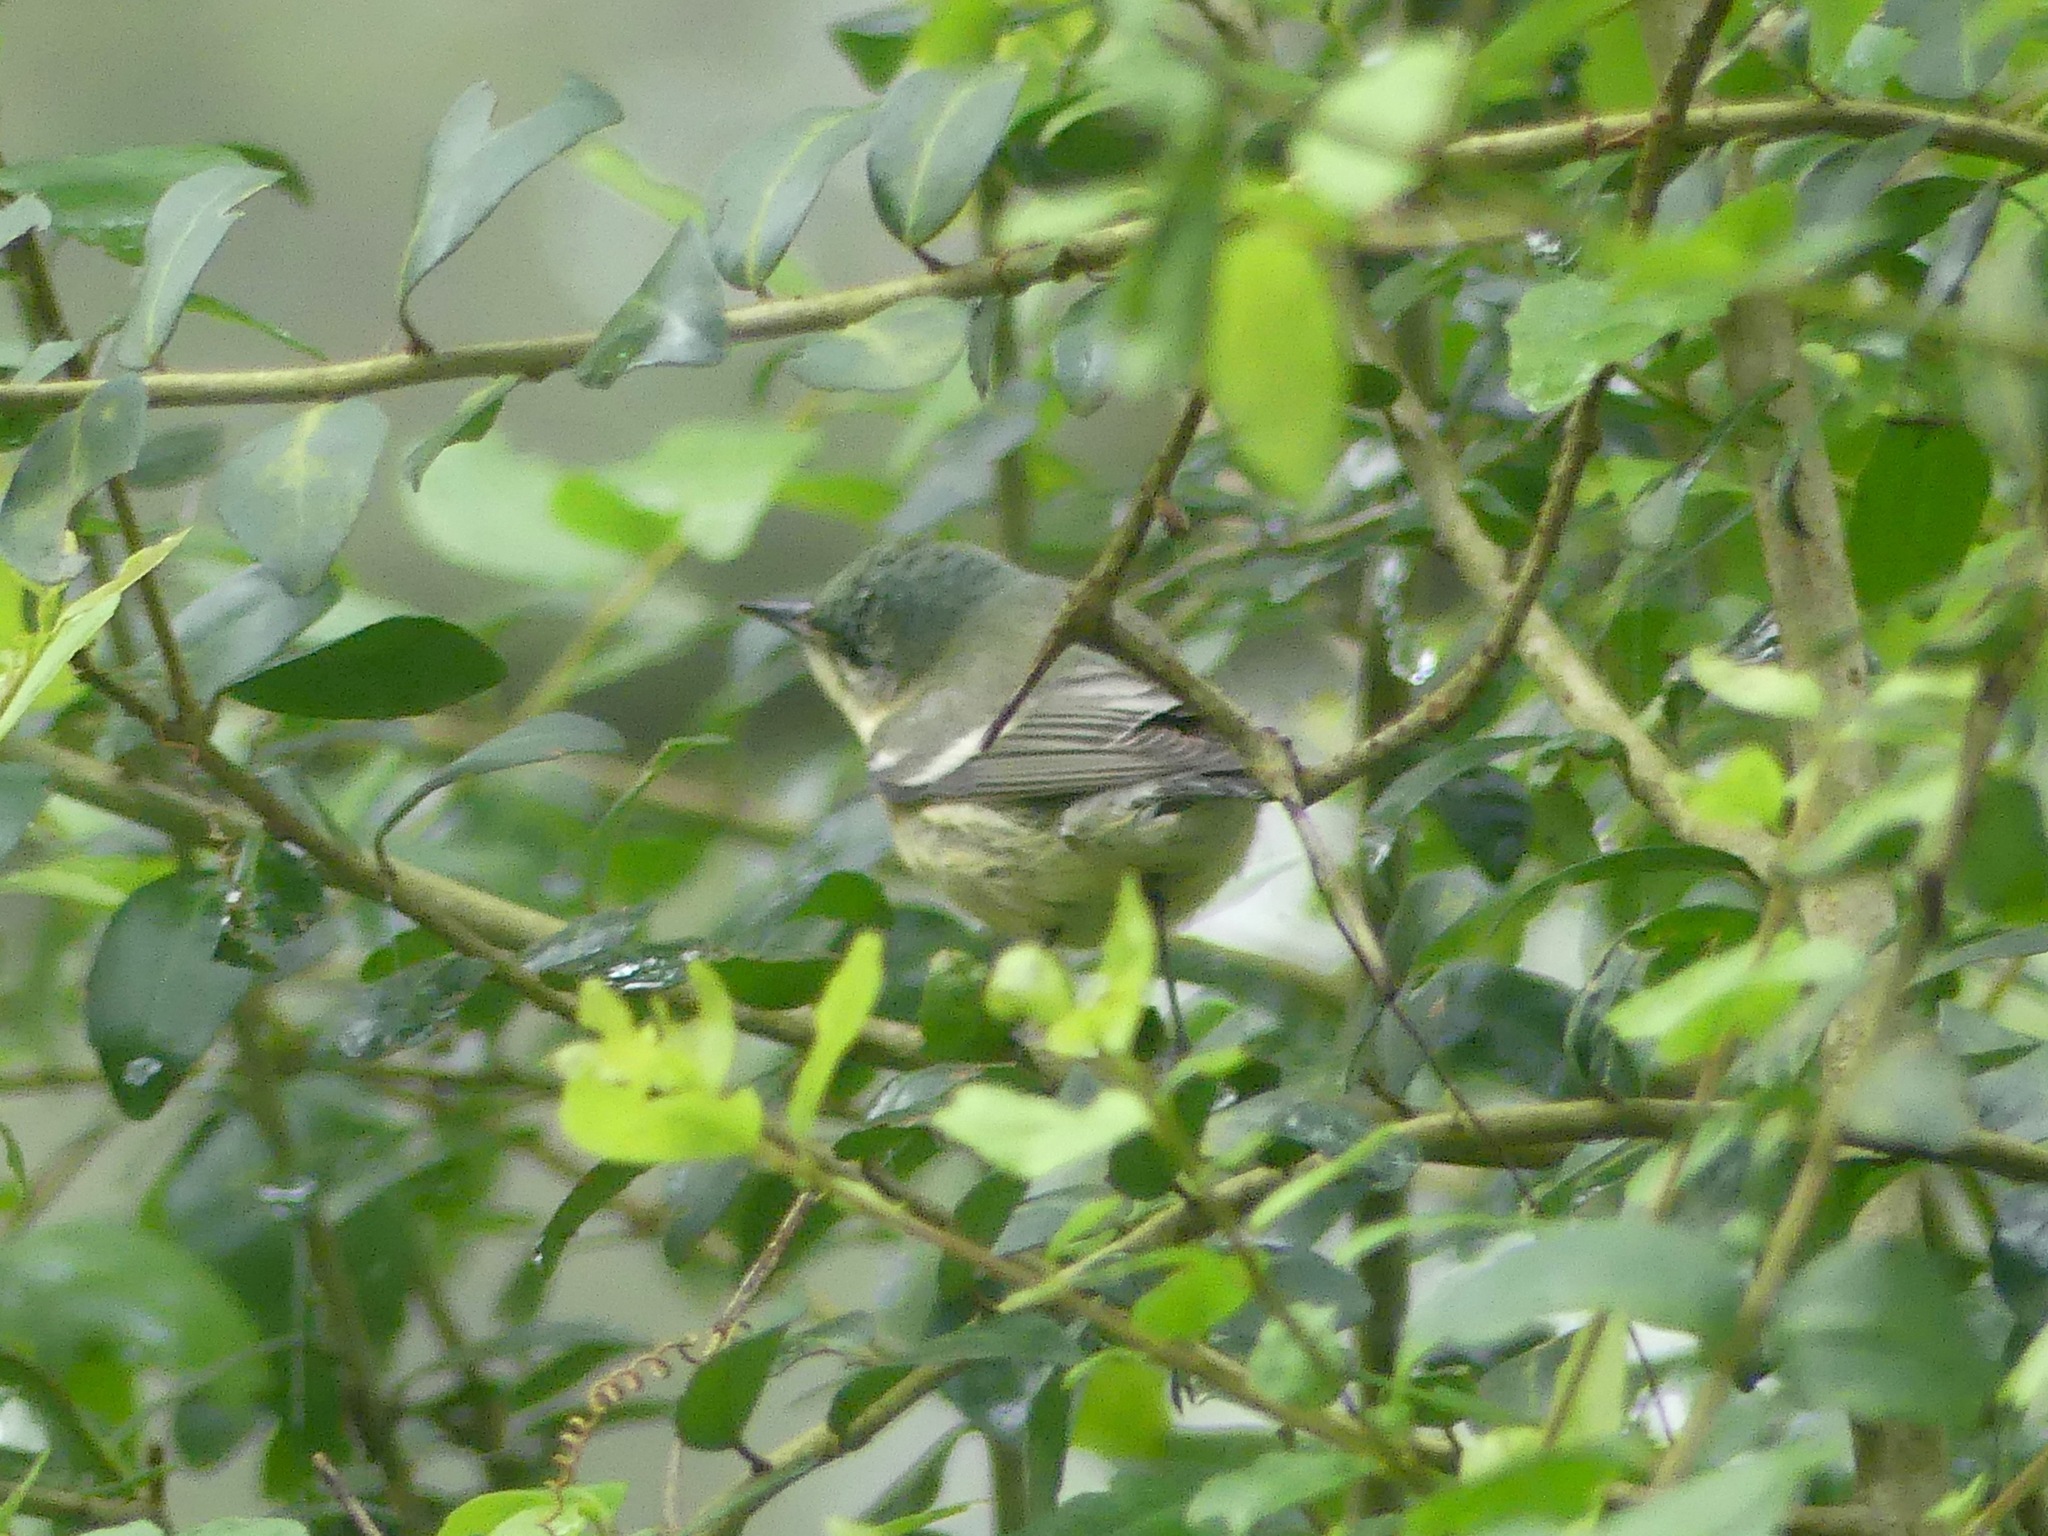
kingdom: Animalia
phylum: Chordata
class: Aves
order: Passeriformes
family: Parulidae
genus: Setophaga
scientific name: Setophaga cerulea
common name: Cerulean warbler
